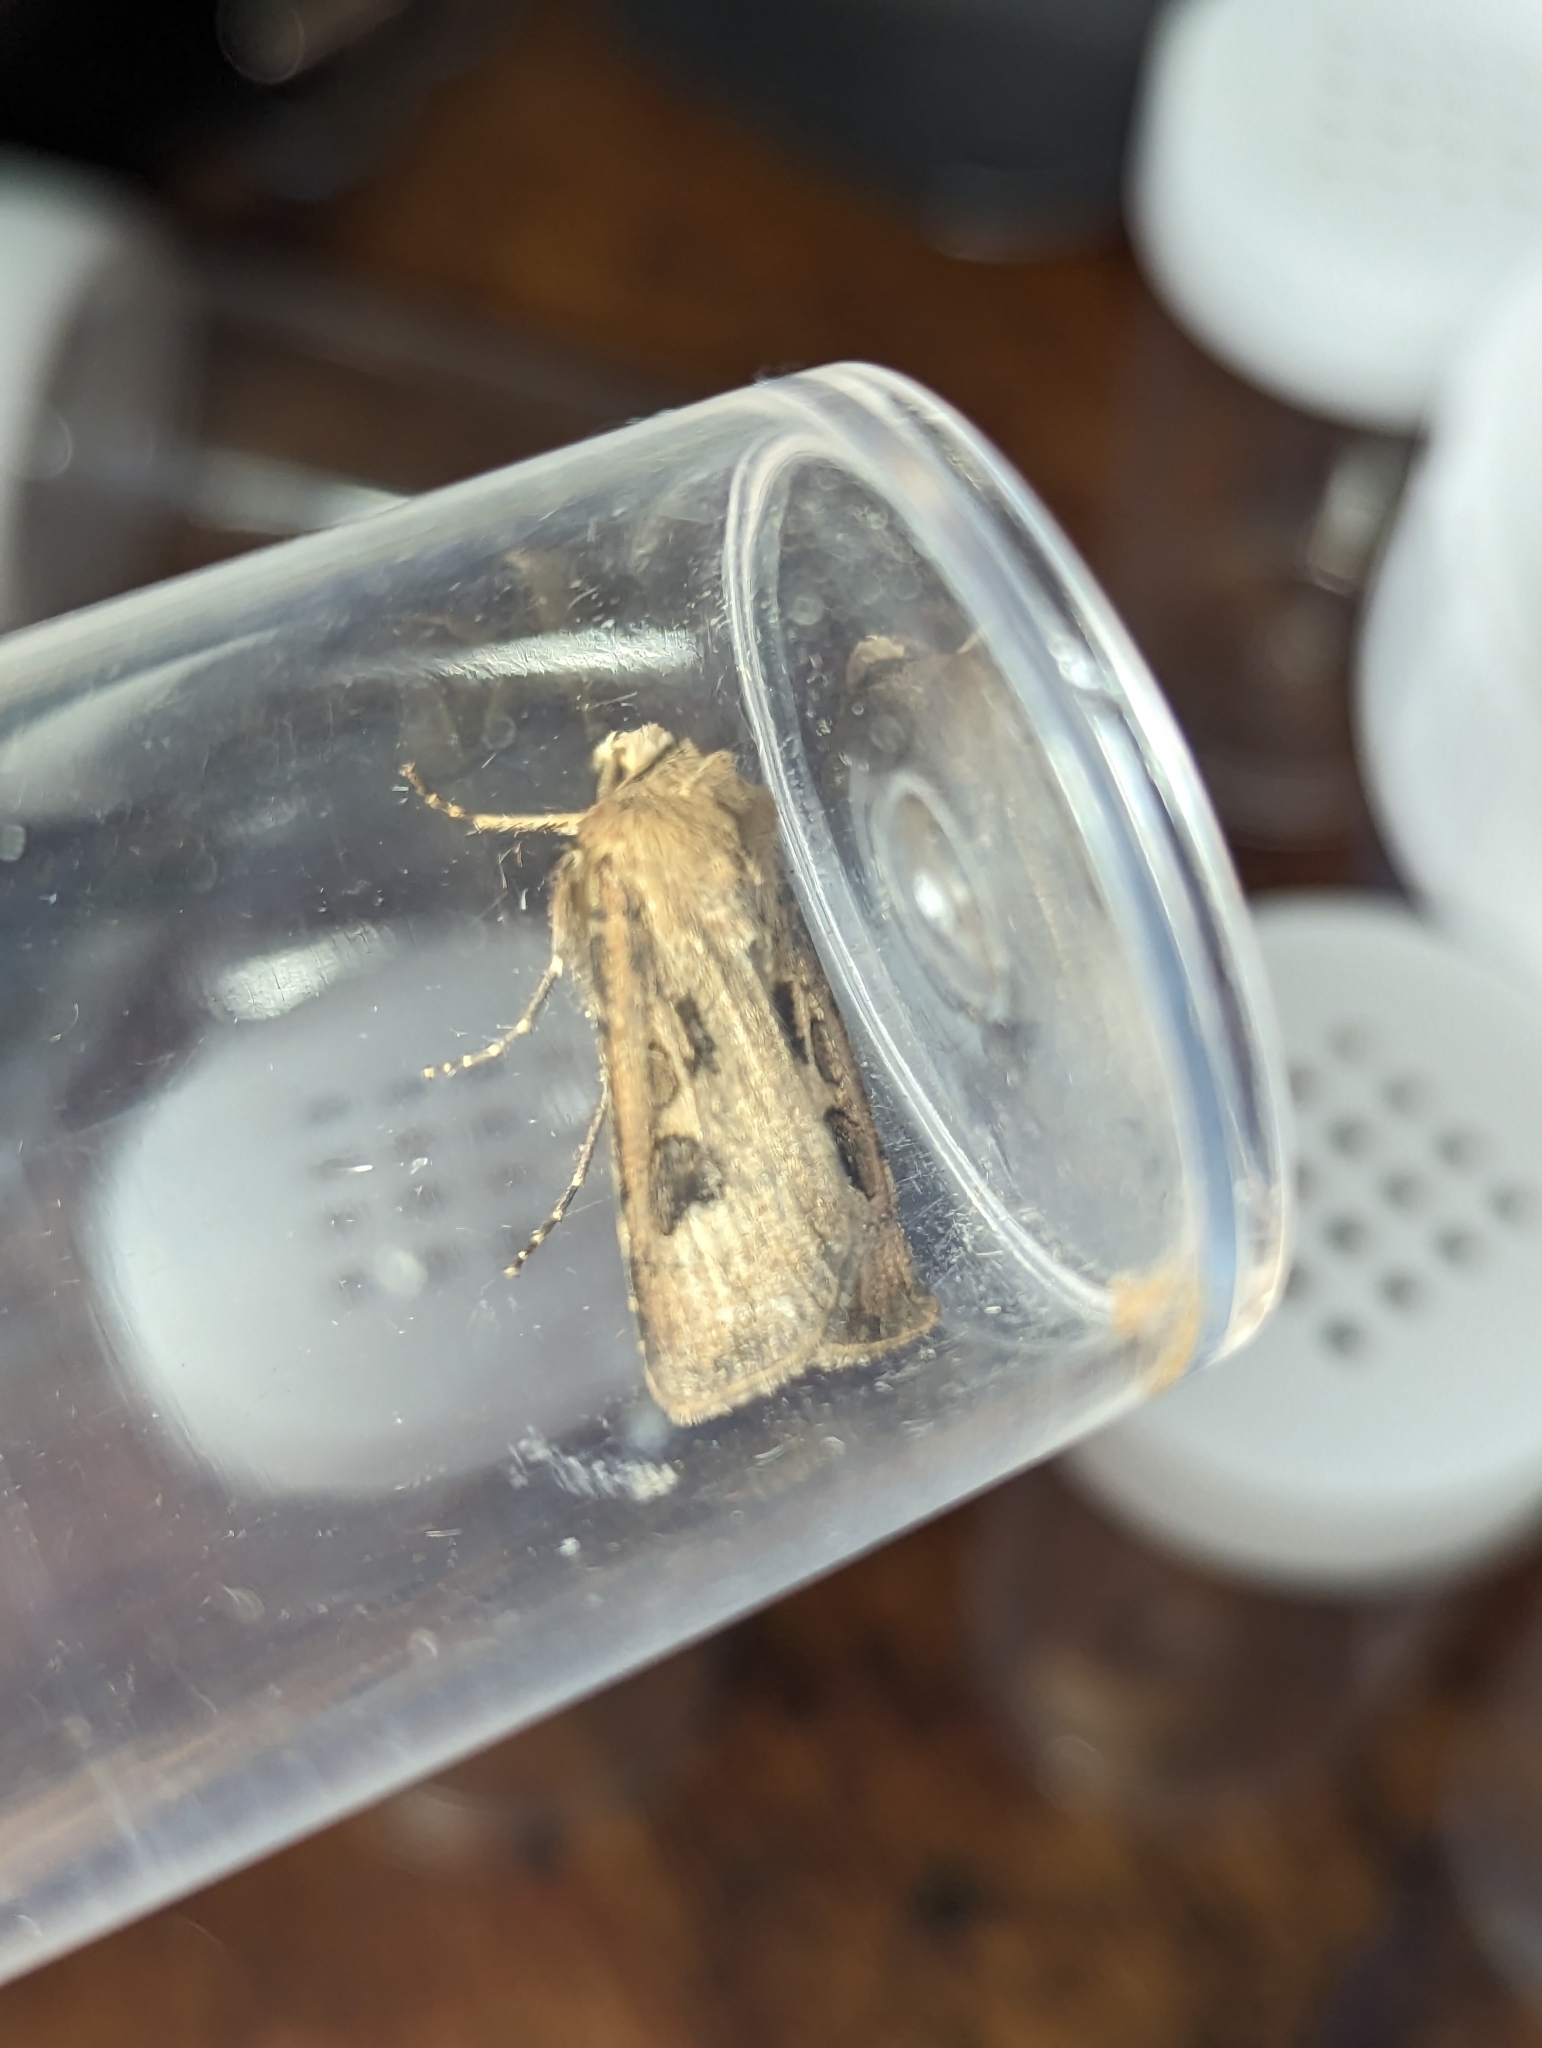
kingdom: Animalia
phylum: Arthropoda
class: Insecta
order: Lepidoptera
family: Noctuidae
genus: Agrotis
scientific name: Agrotis exclamationis
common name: Heart and dart
